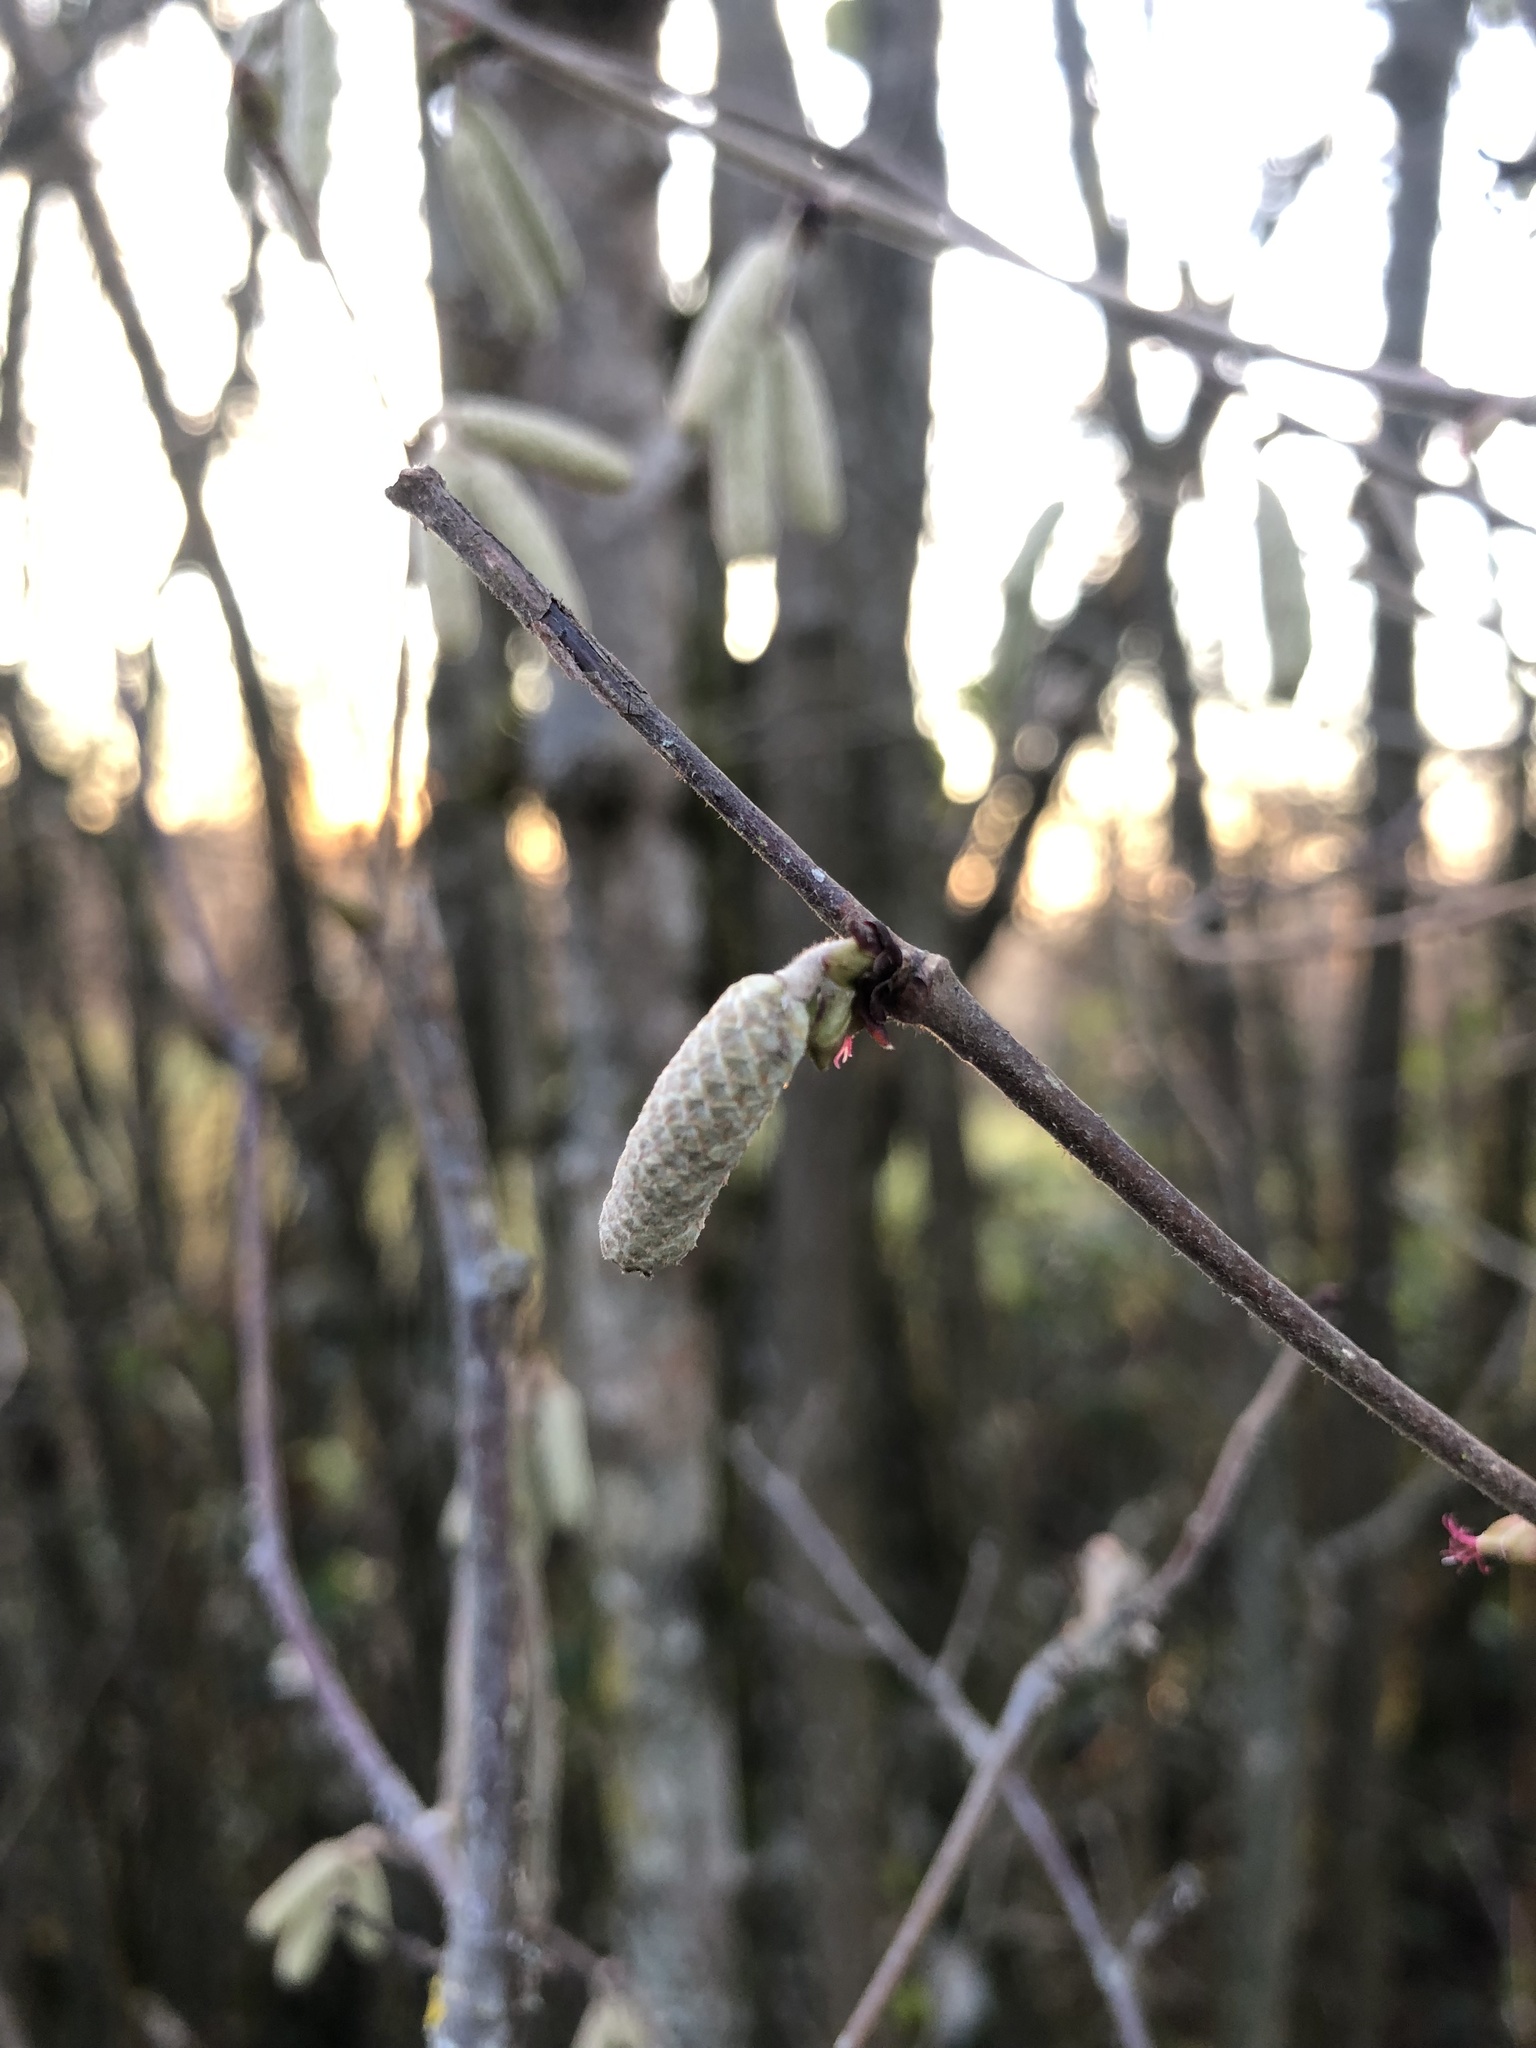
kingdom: Plantae
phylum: Tracheophyta
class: Magnoliopsida
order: Fagales
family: Betulaceae
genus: Corylus
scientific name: Corylus avellana
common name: European hazel
